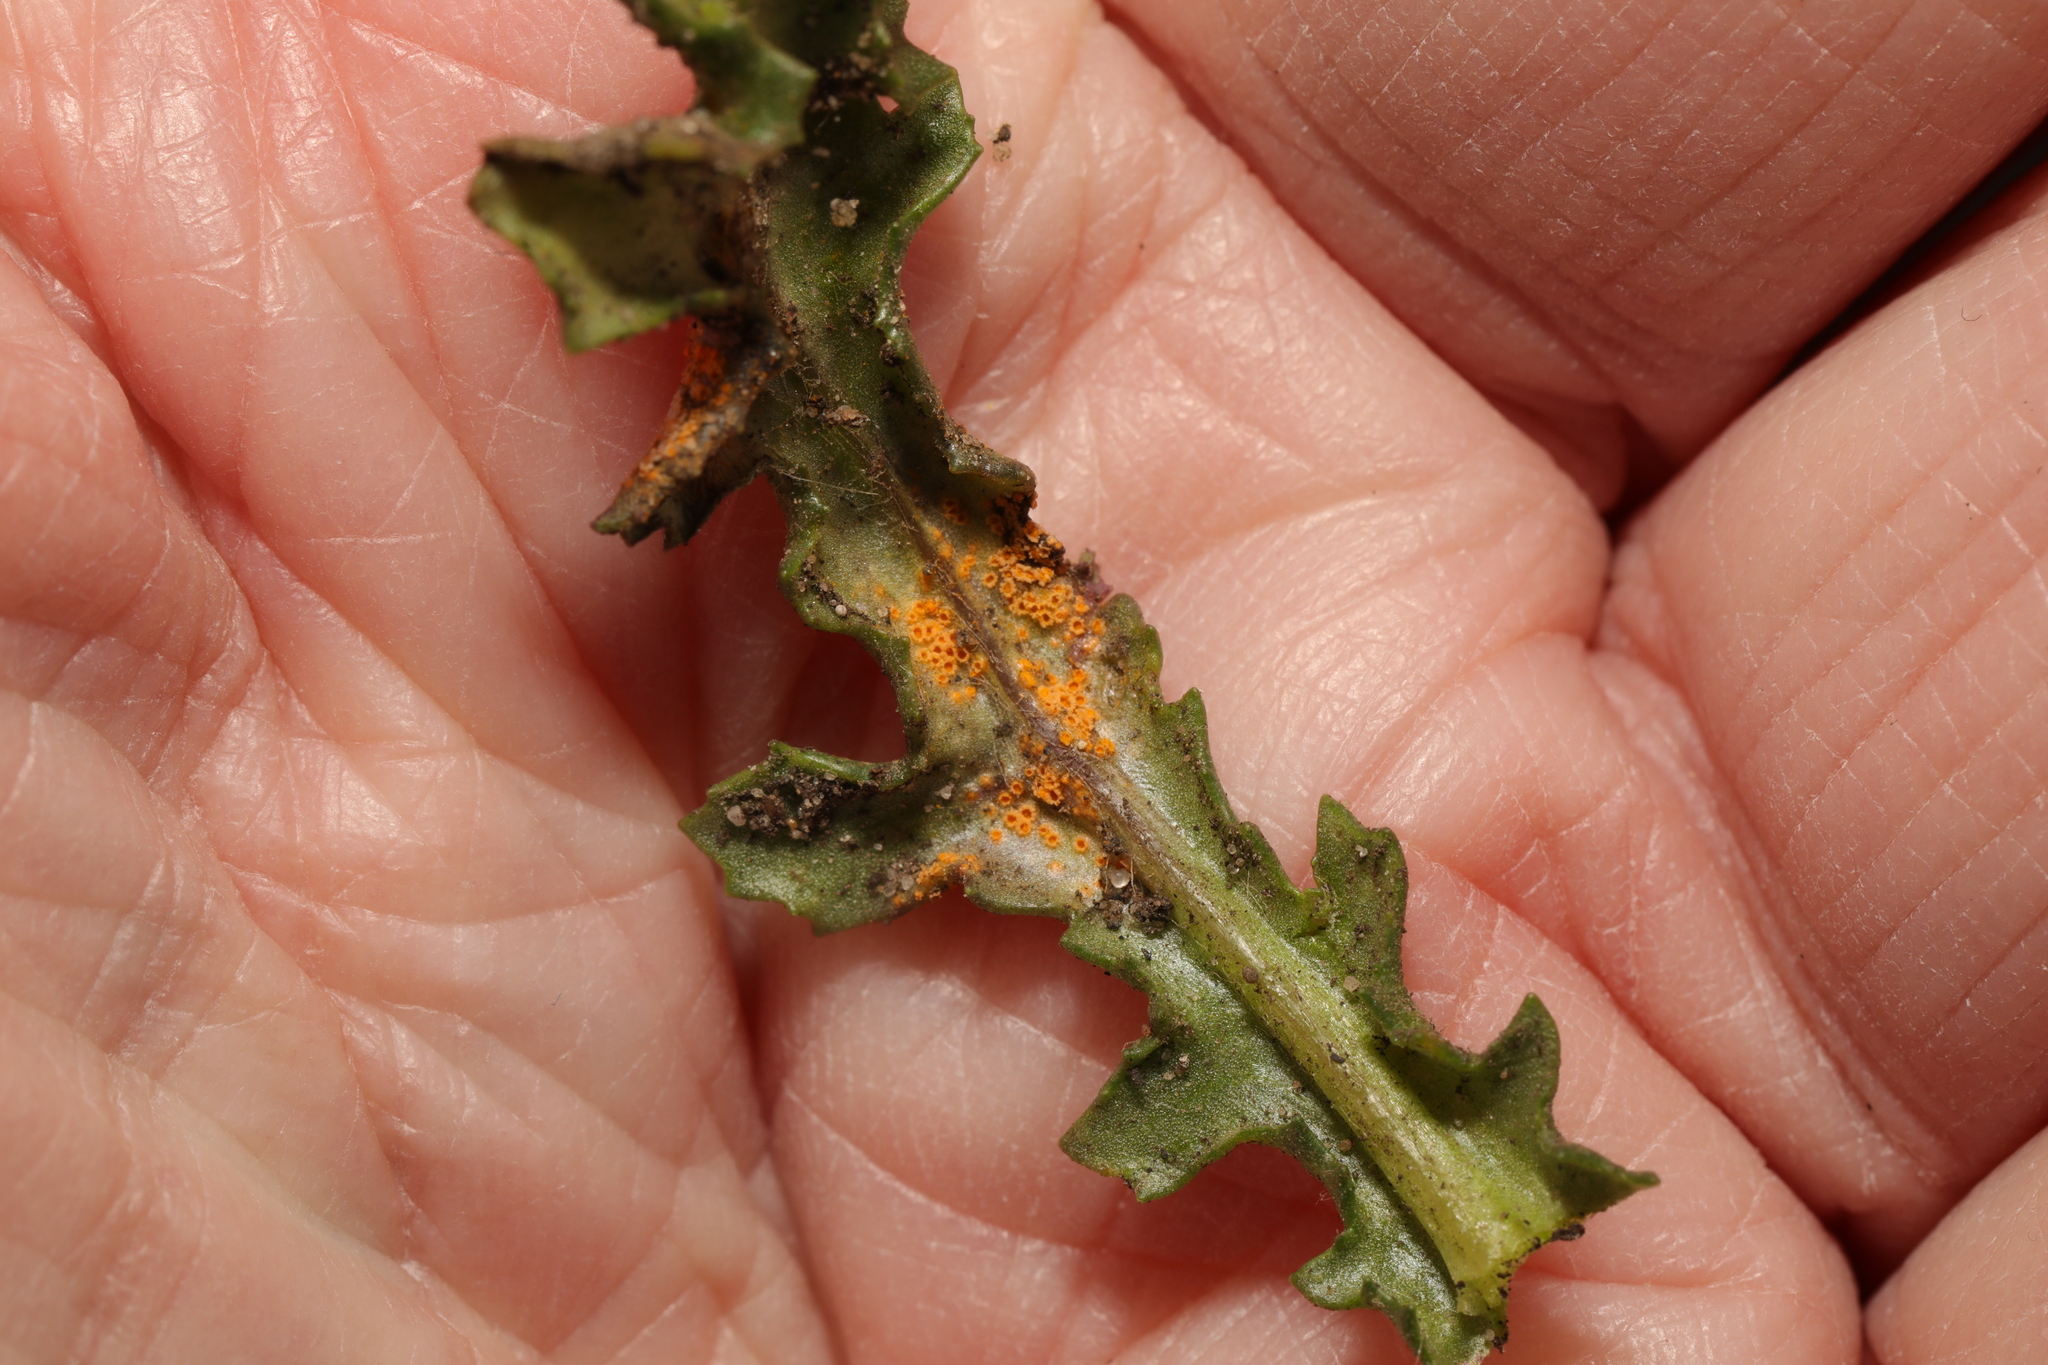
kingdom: Fungi
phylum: Basidiomycota
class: Pucciniomycetes
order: Pucciniales
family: Pucciniaceae
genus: Puccinia
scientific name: Puccinia lagenophorae
